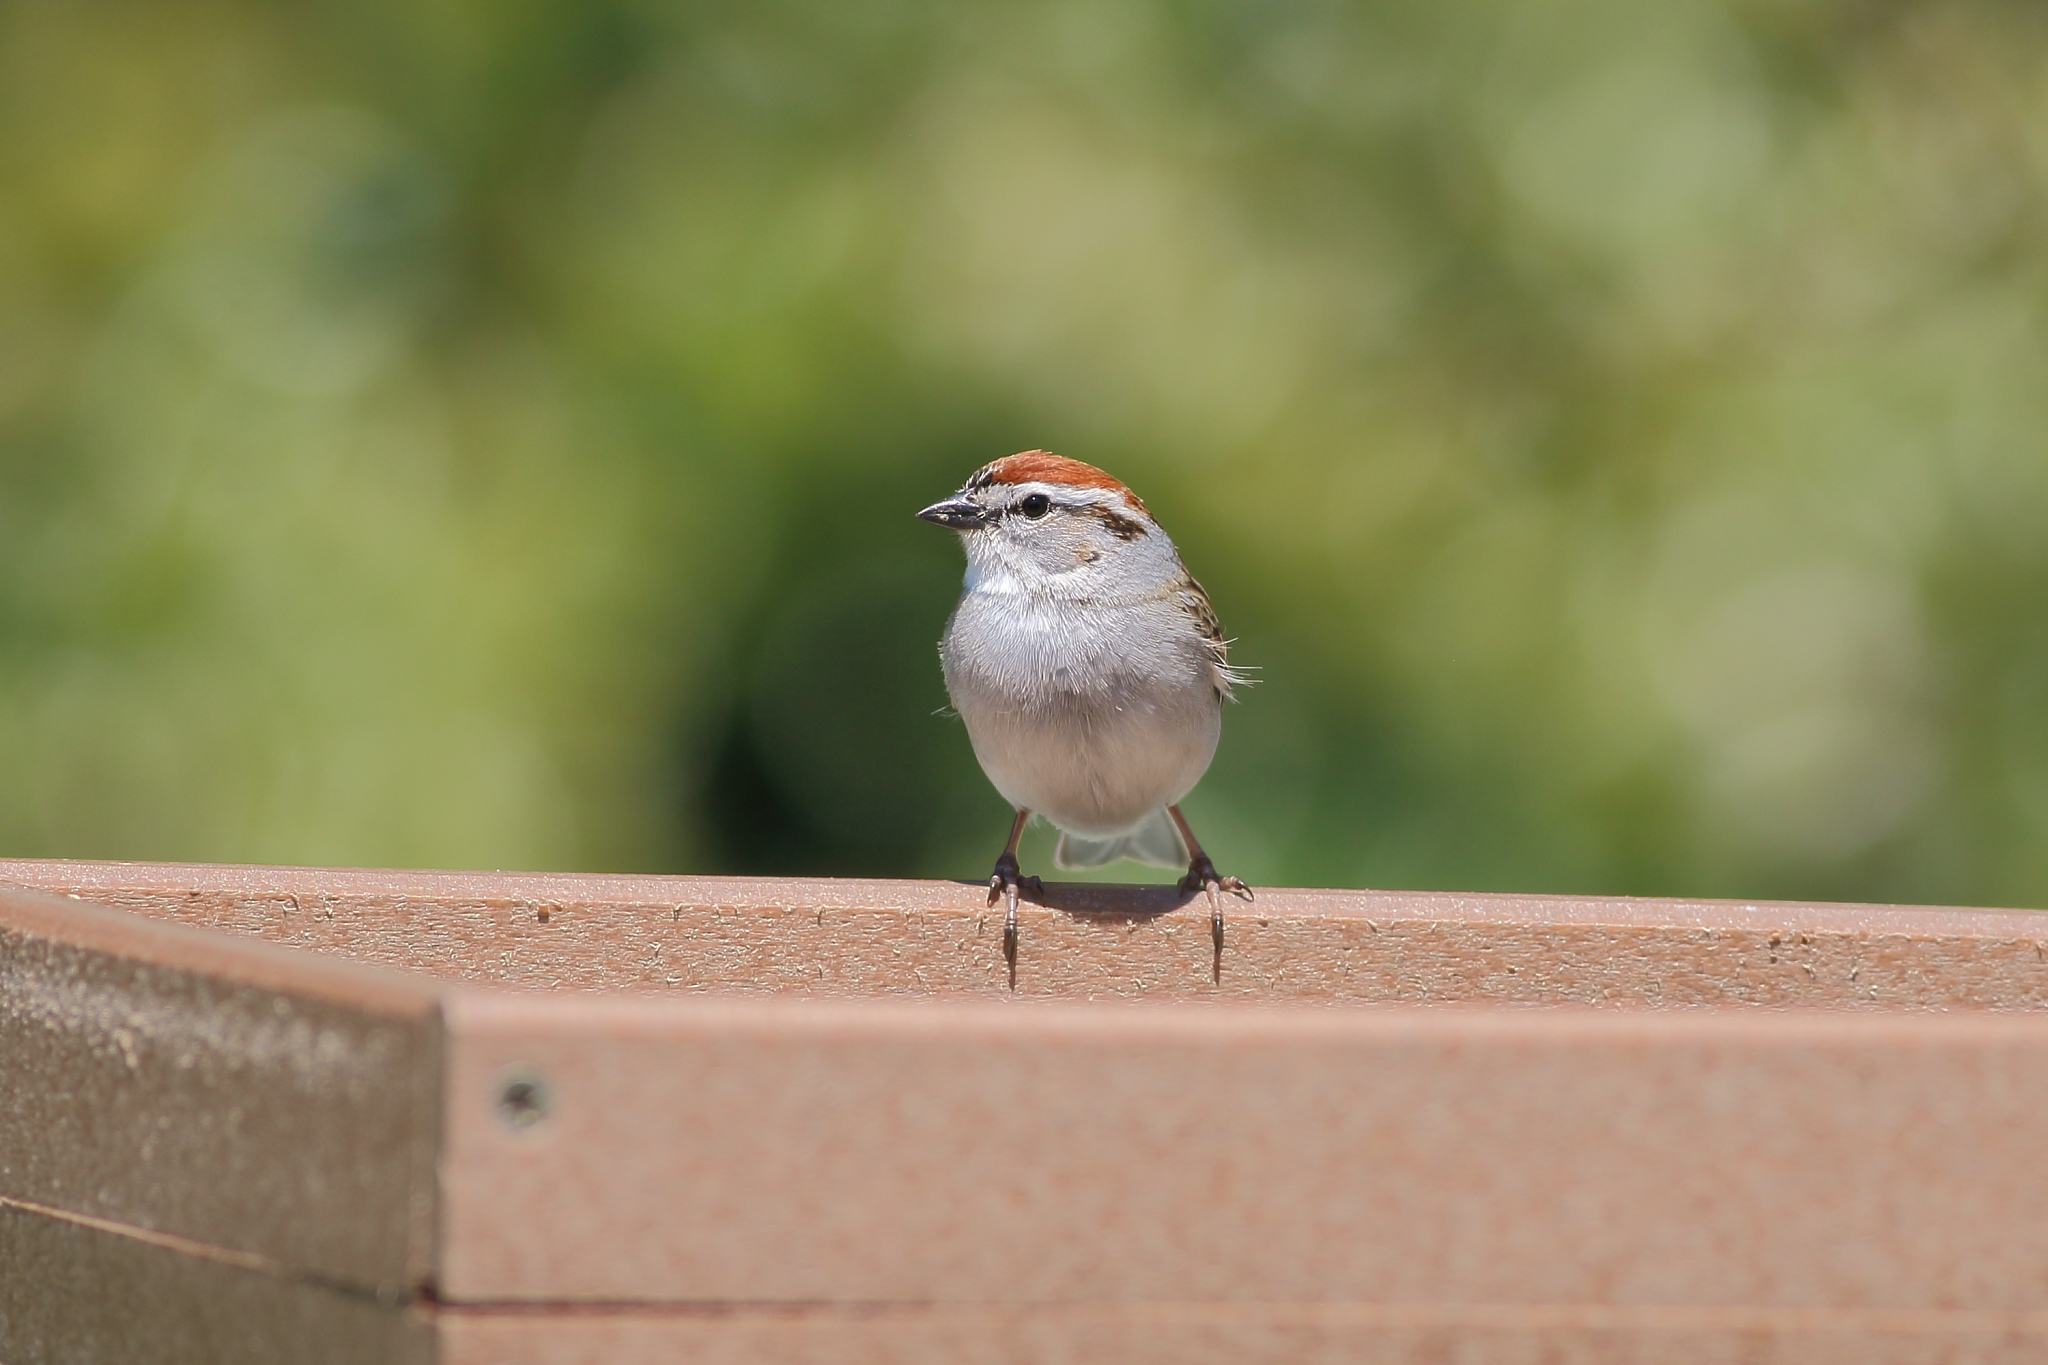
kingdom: Animalia
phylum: Chordata
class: Aves
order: Passeriformes
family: Passerellidae
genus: Spizella
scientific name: Spizella passerina
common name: Chipping sparrow
